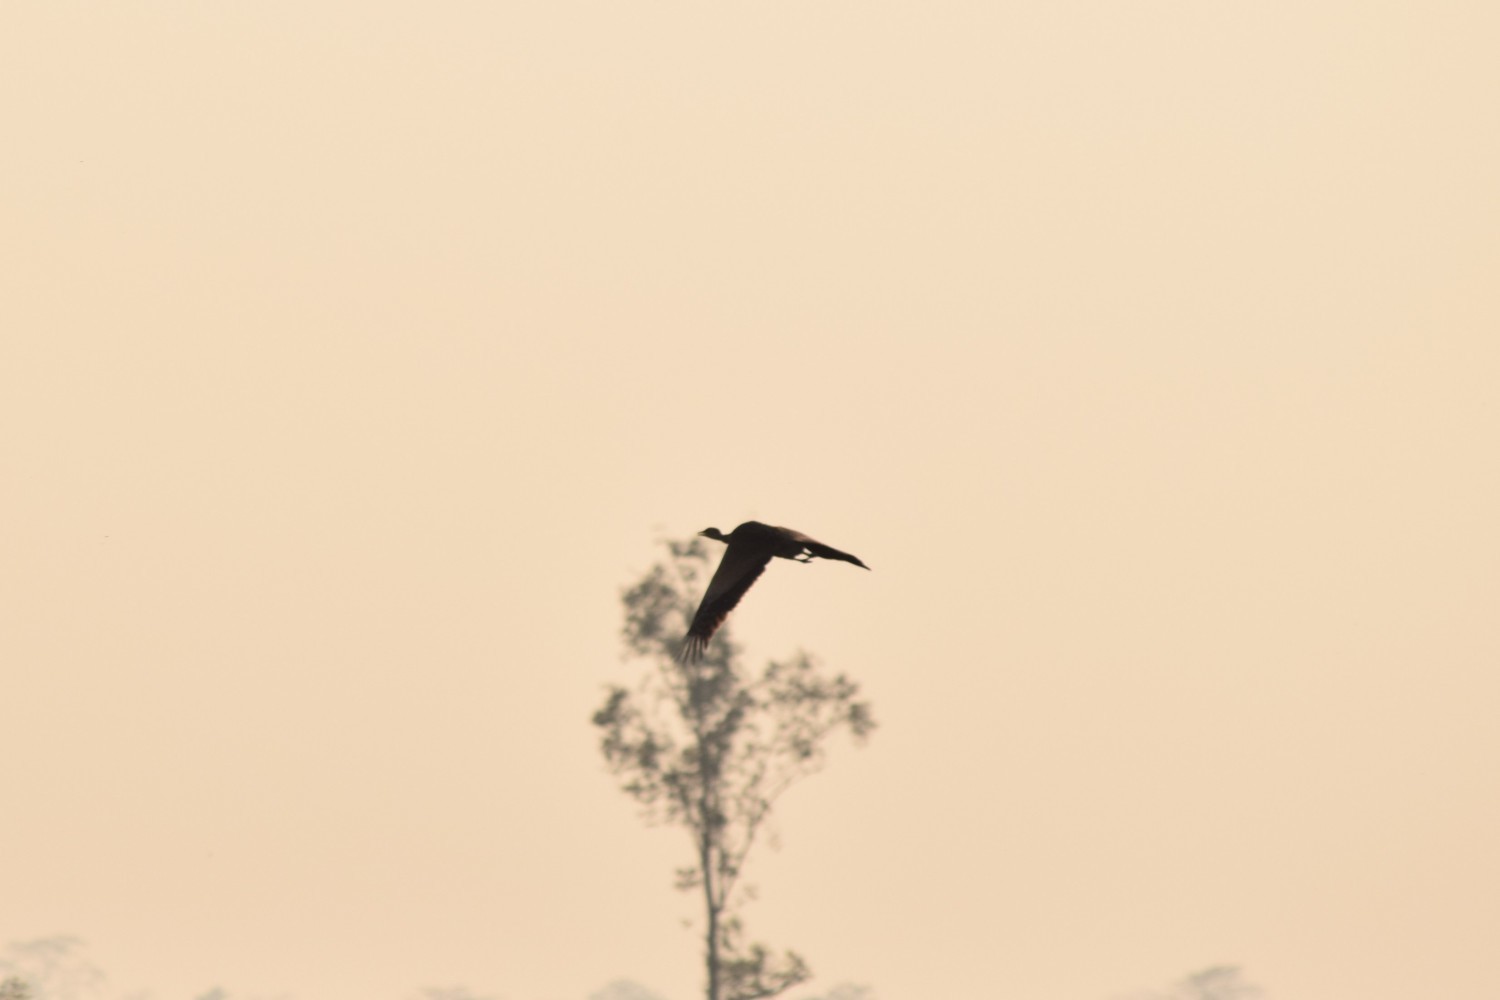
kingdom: Animalia
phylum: Chordata
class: Aves
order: Otidiformes
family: Otididae
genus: Houbaropsis
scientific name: Houbaropsis bengalensis
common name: Bengal florican
